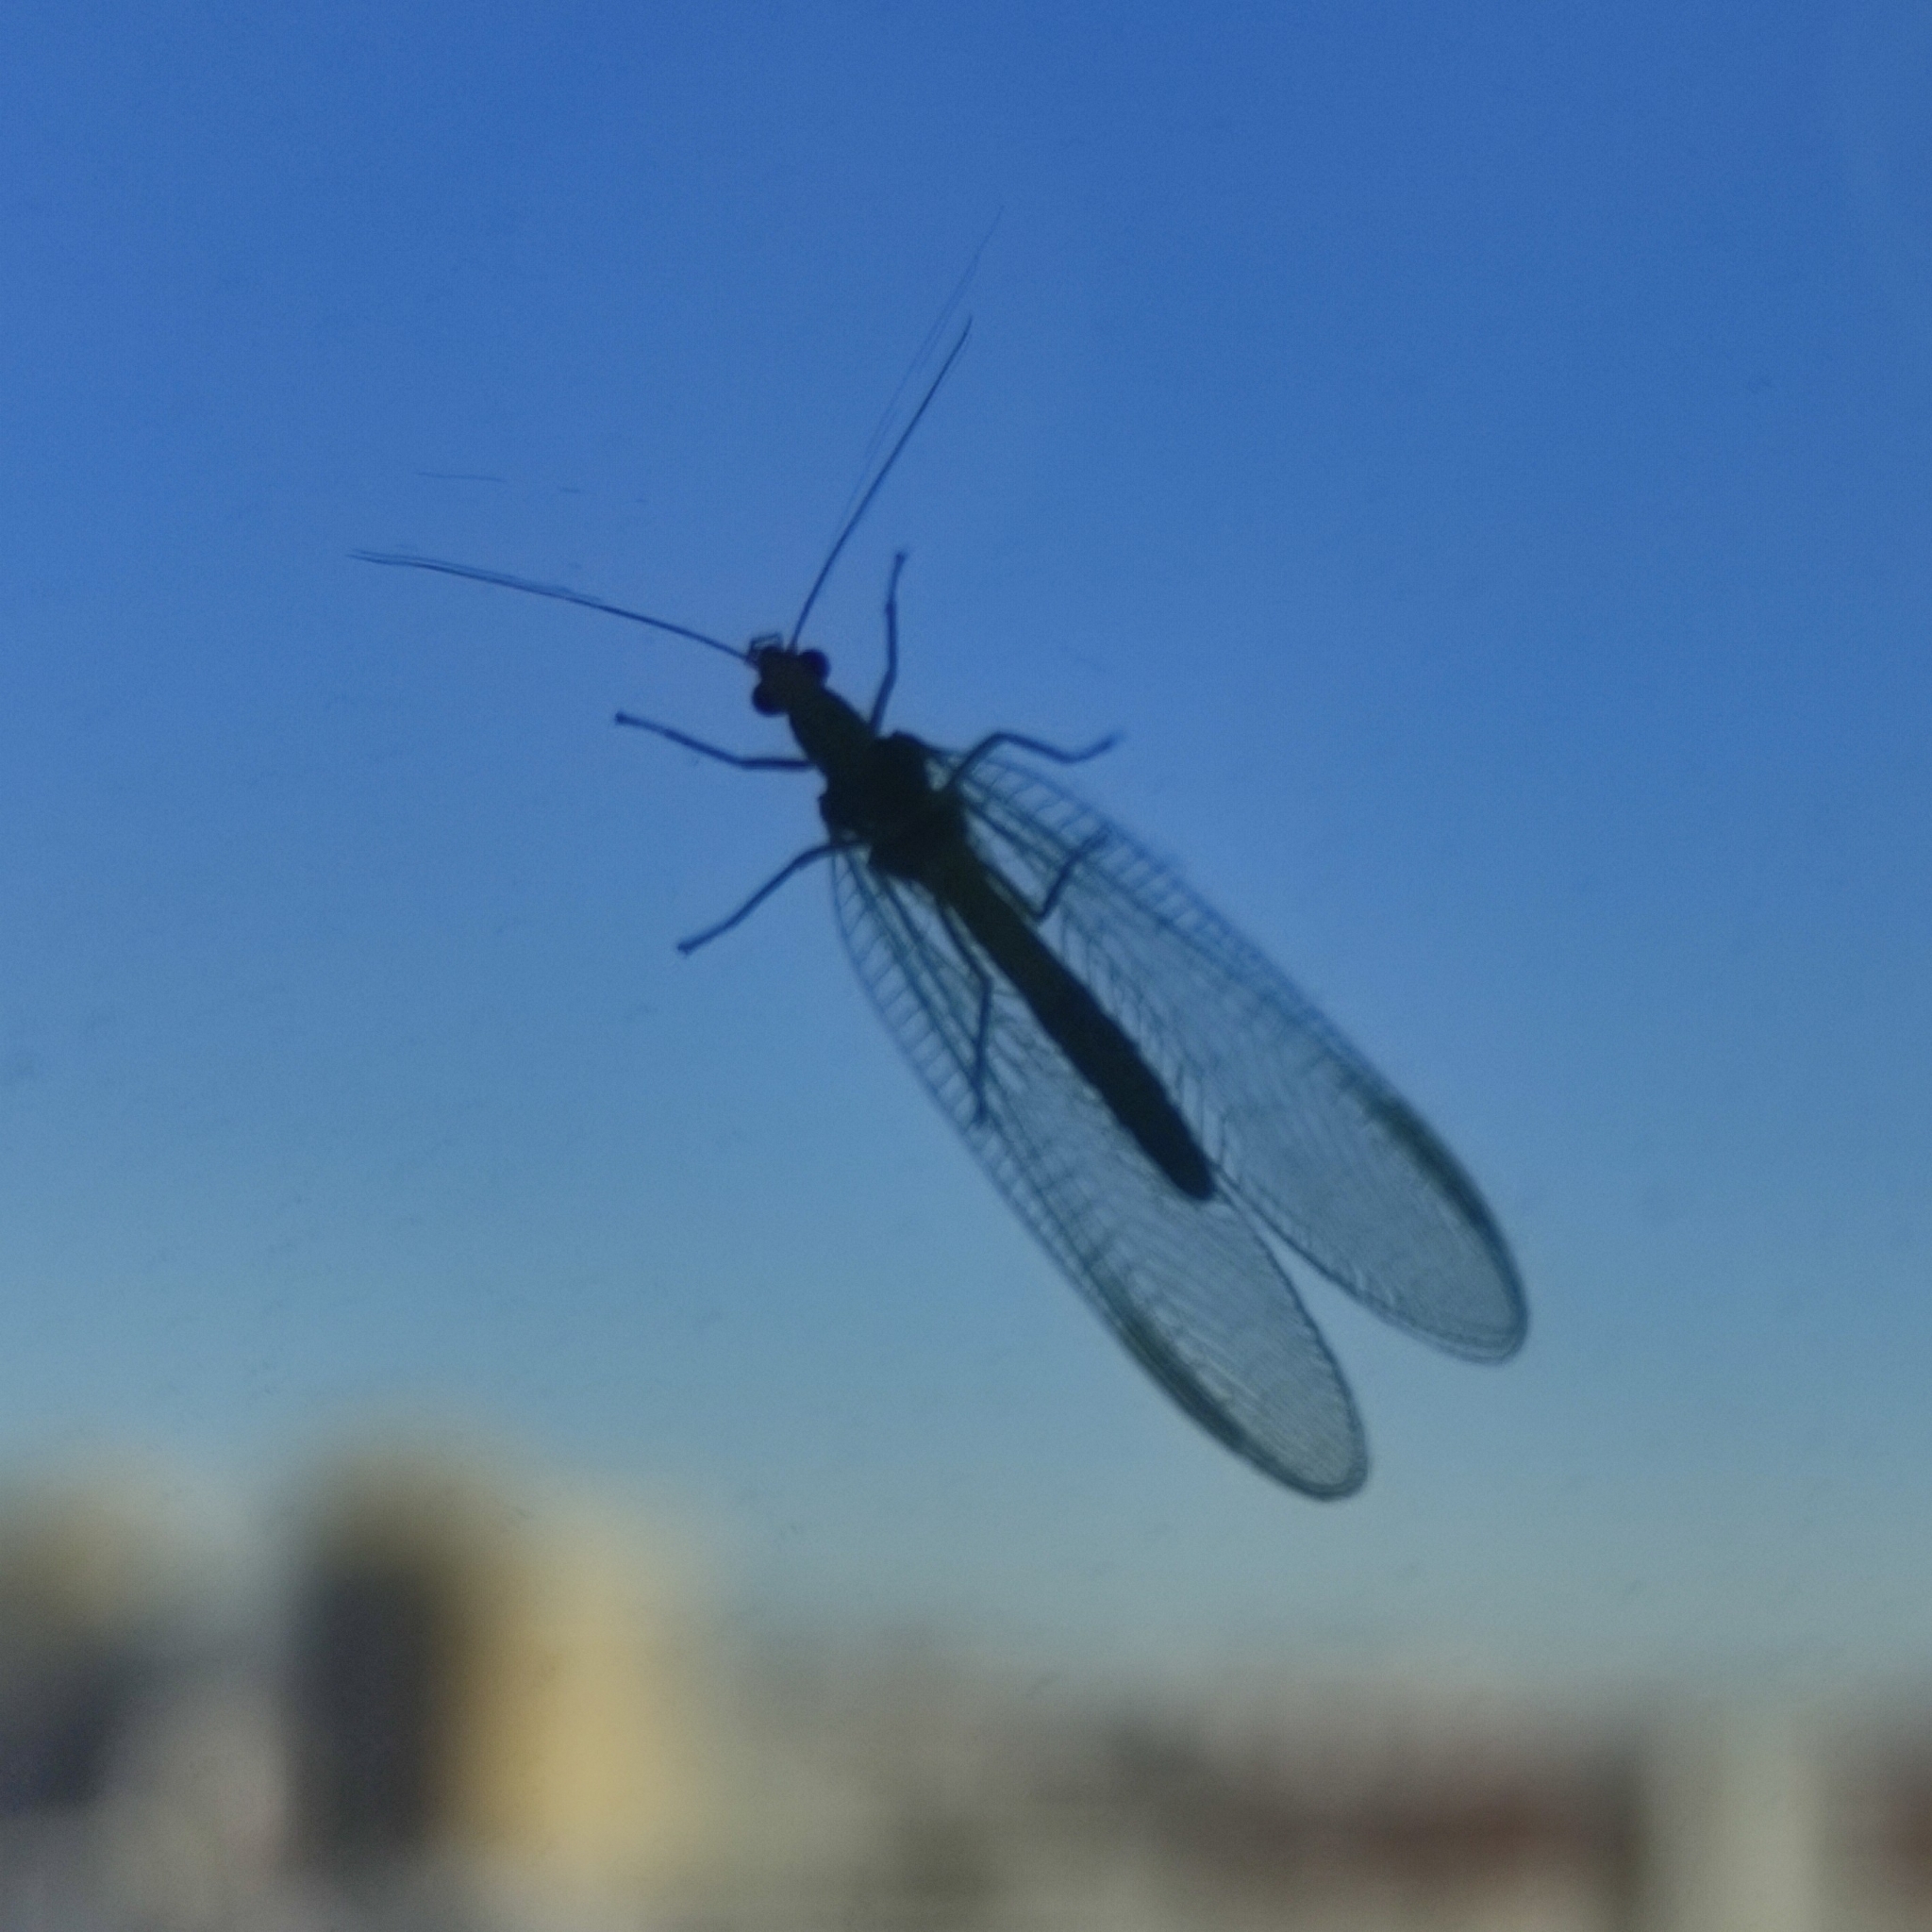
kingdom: Animalia
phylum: Arthropoda
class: Insecta
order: Neuroptera
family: Chrysopidae
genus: Chrysoperla
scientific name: Chrysoperla
